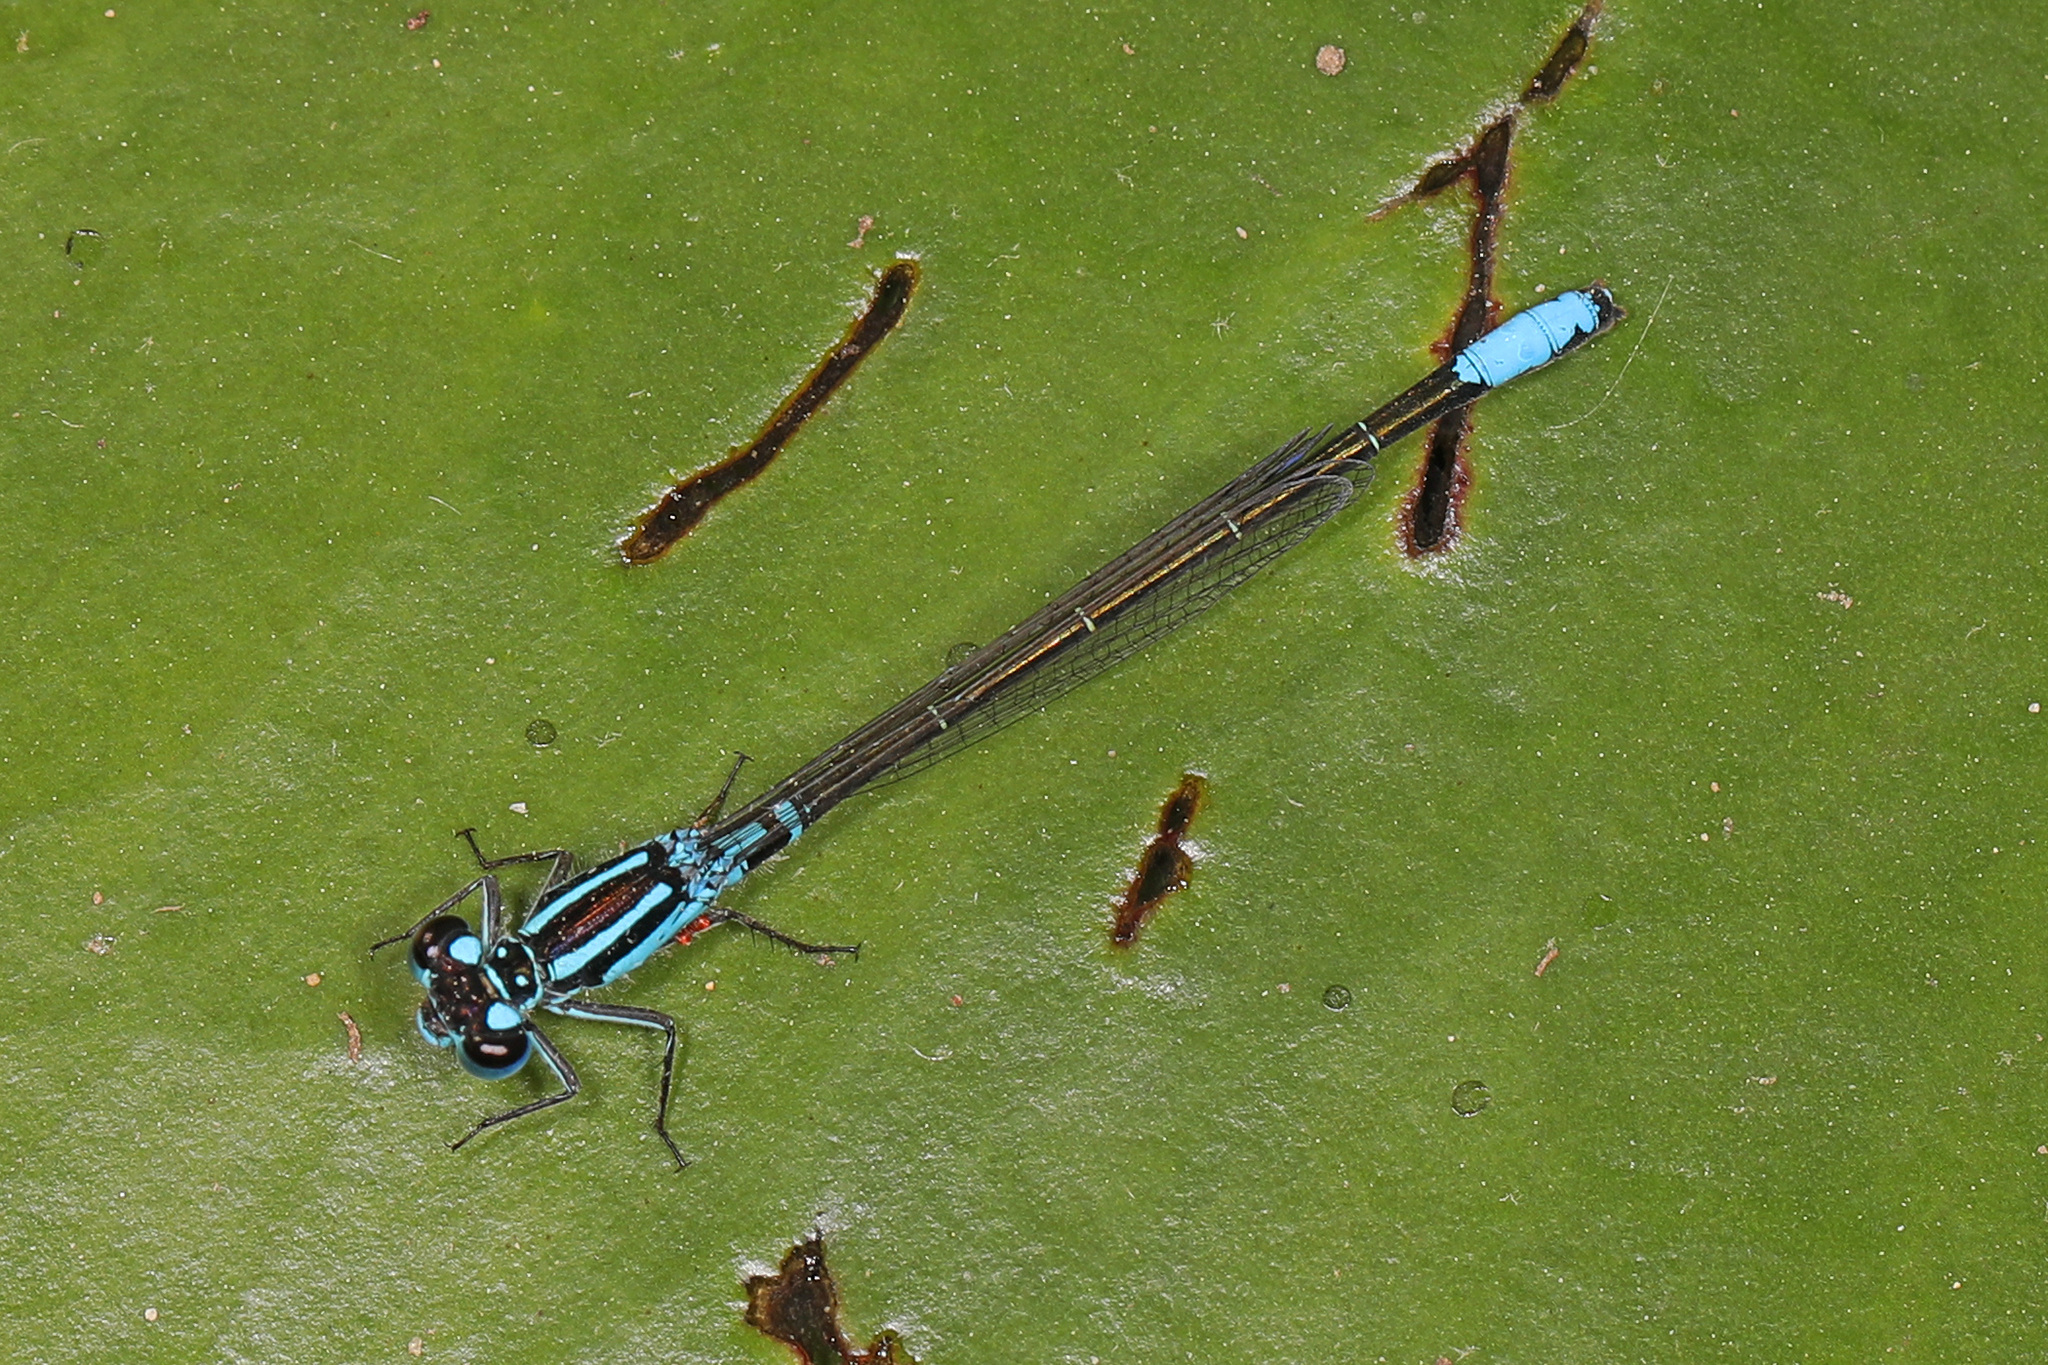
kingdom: Animalia
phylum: Arthropoda
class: Insecta
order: Odonata
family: Coenagrionidae
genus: Ischnura
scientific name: Ischnura kellicotti
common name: Lilypad forktail
